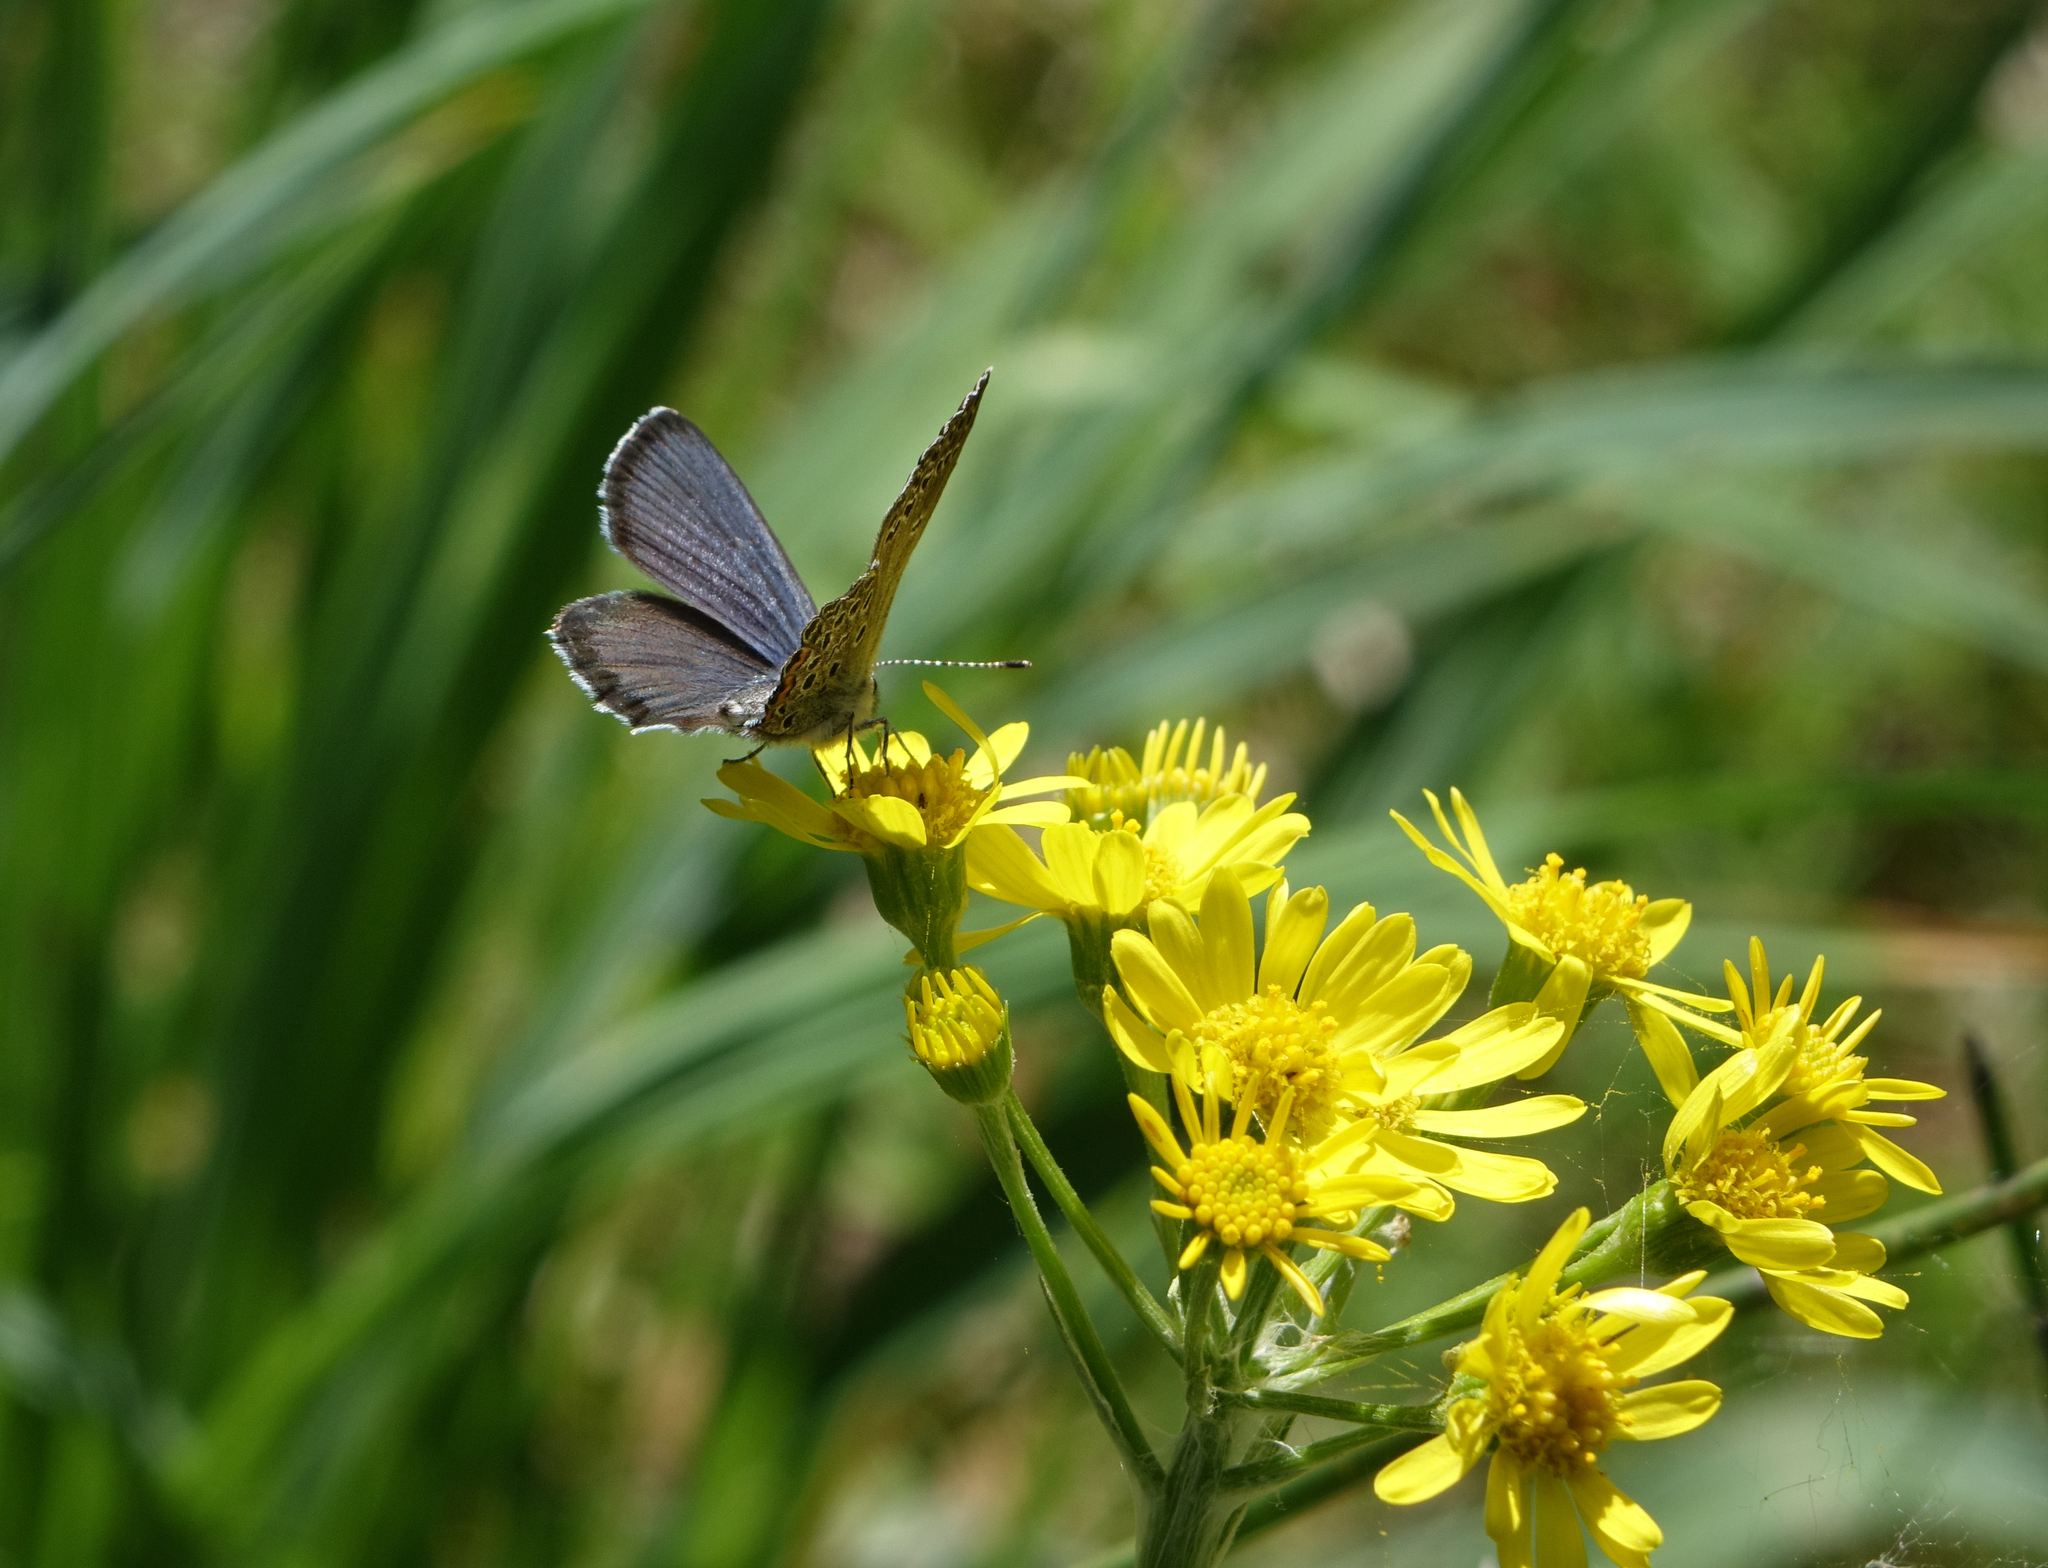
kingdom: Animalia
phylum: Arthropoda
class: Insecta
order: Lepidoptera
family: Lycaenidae
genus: Vacciniina
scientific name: Vacciniina optilete
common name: Cranberry blue
